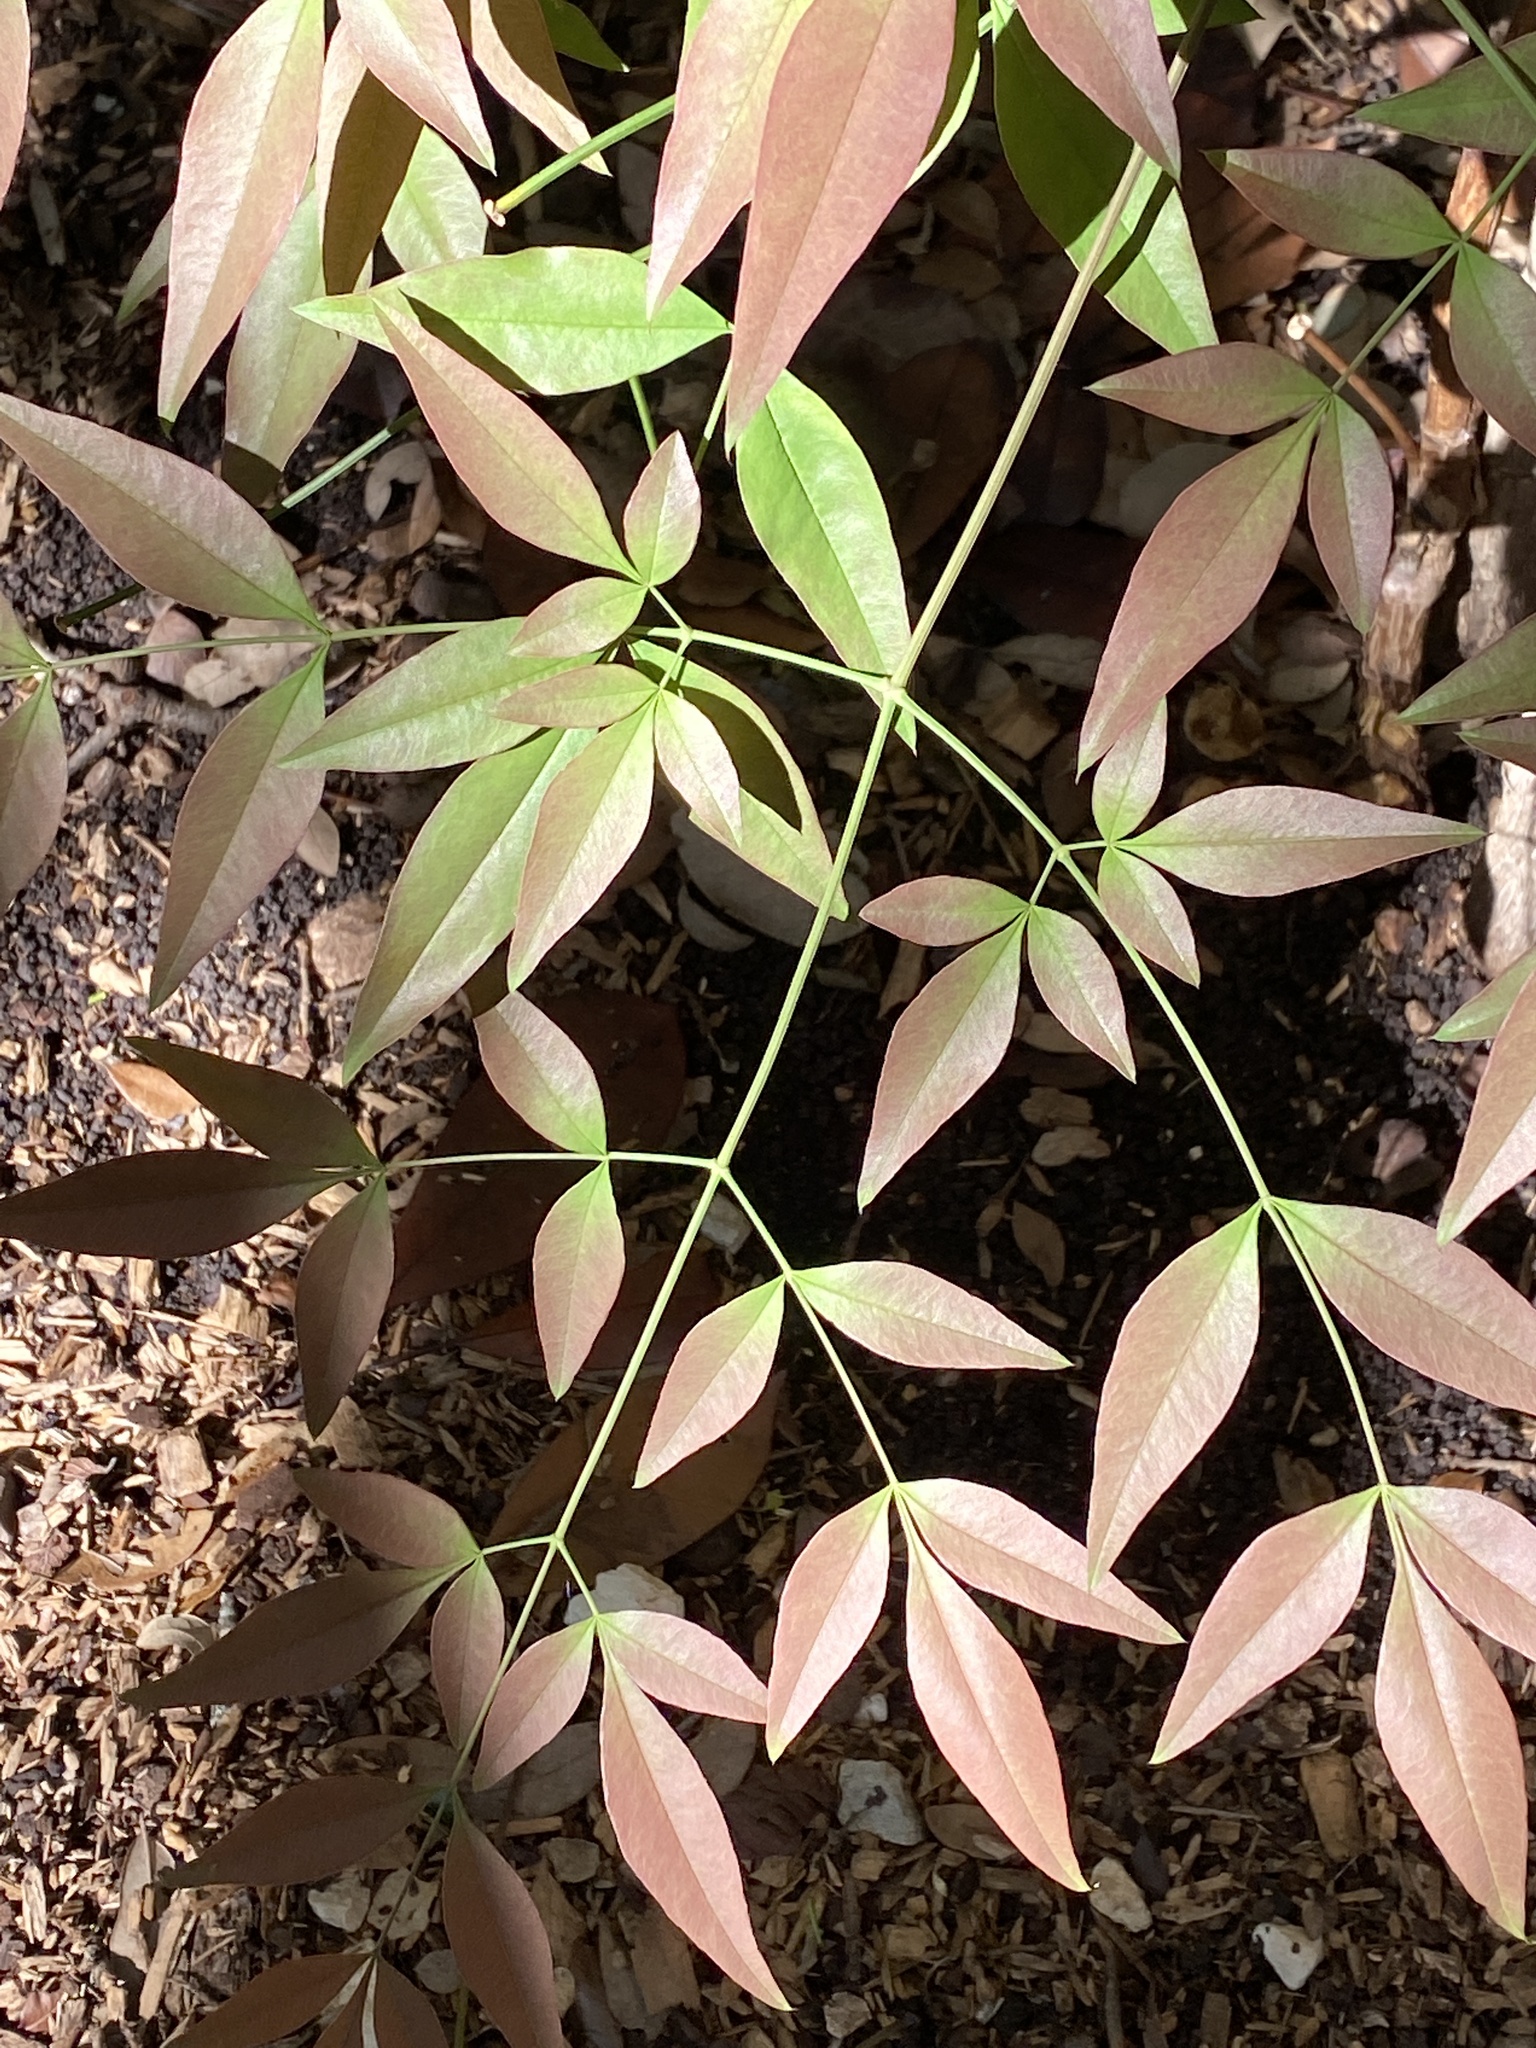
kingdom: Plantae
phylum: Tracheophyta
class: Magnoliopsida
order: Ranunculales
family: Berberidaceae
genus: Nandina
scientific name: Nandina domestica
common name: Sacred bamboo
